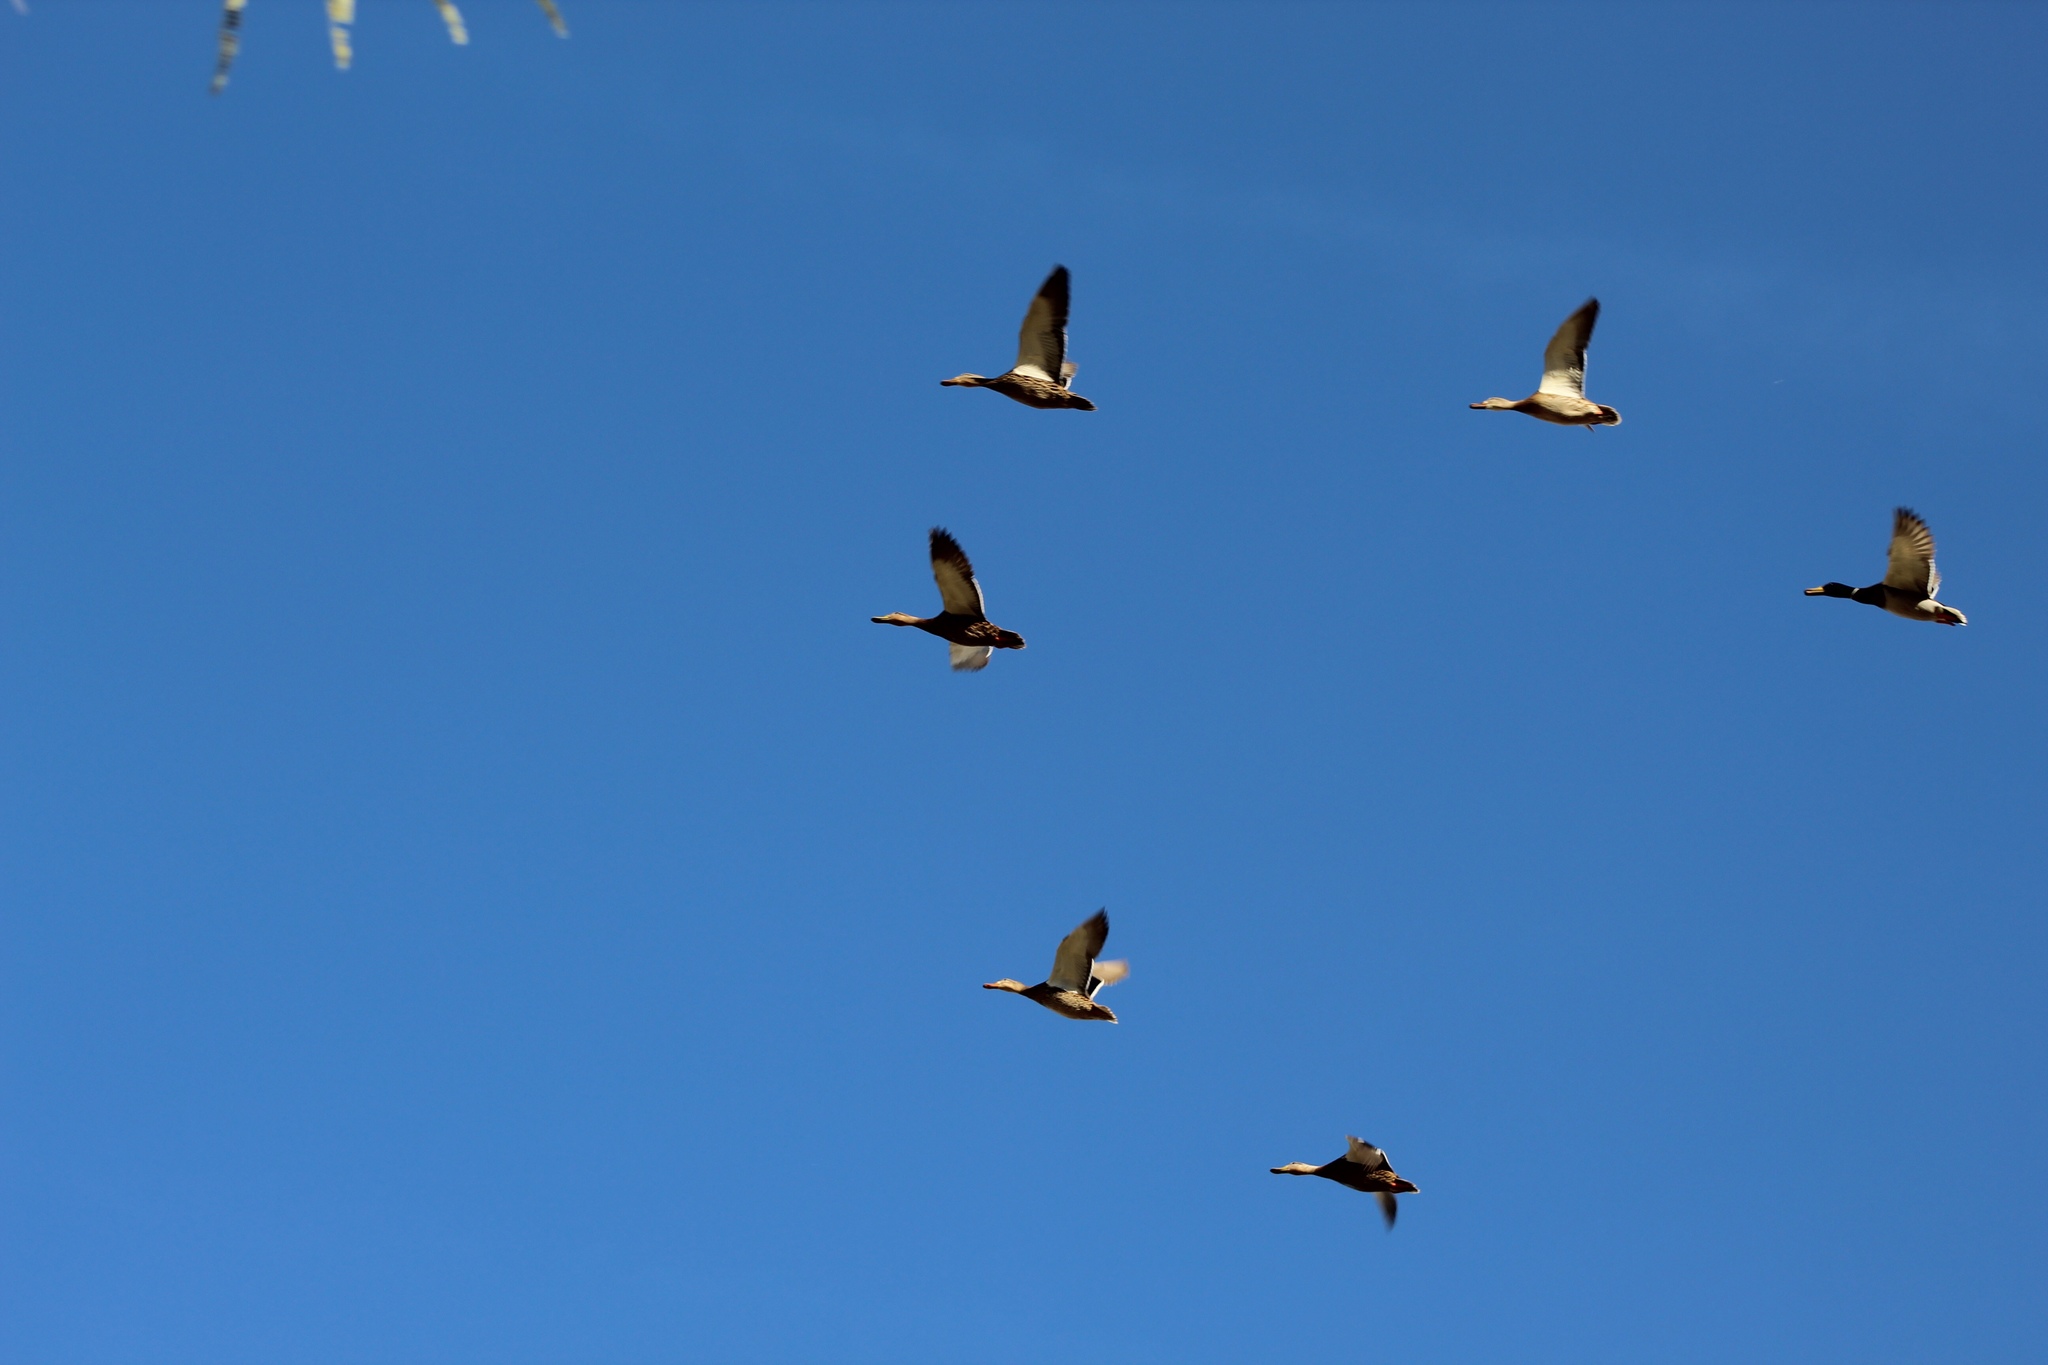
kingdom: Animalia
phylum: Chordata
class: Aves
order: Anseriformes
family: Anatidae
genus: Anas
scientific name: Anas platyrhynchos
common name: Mallard
